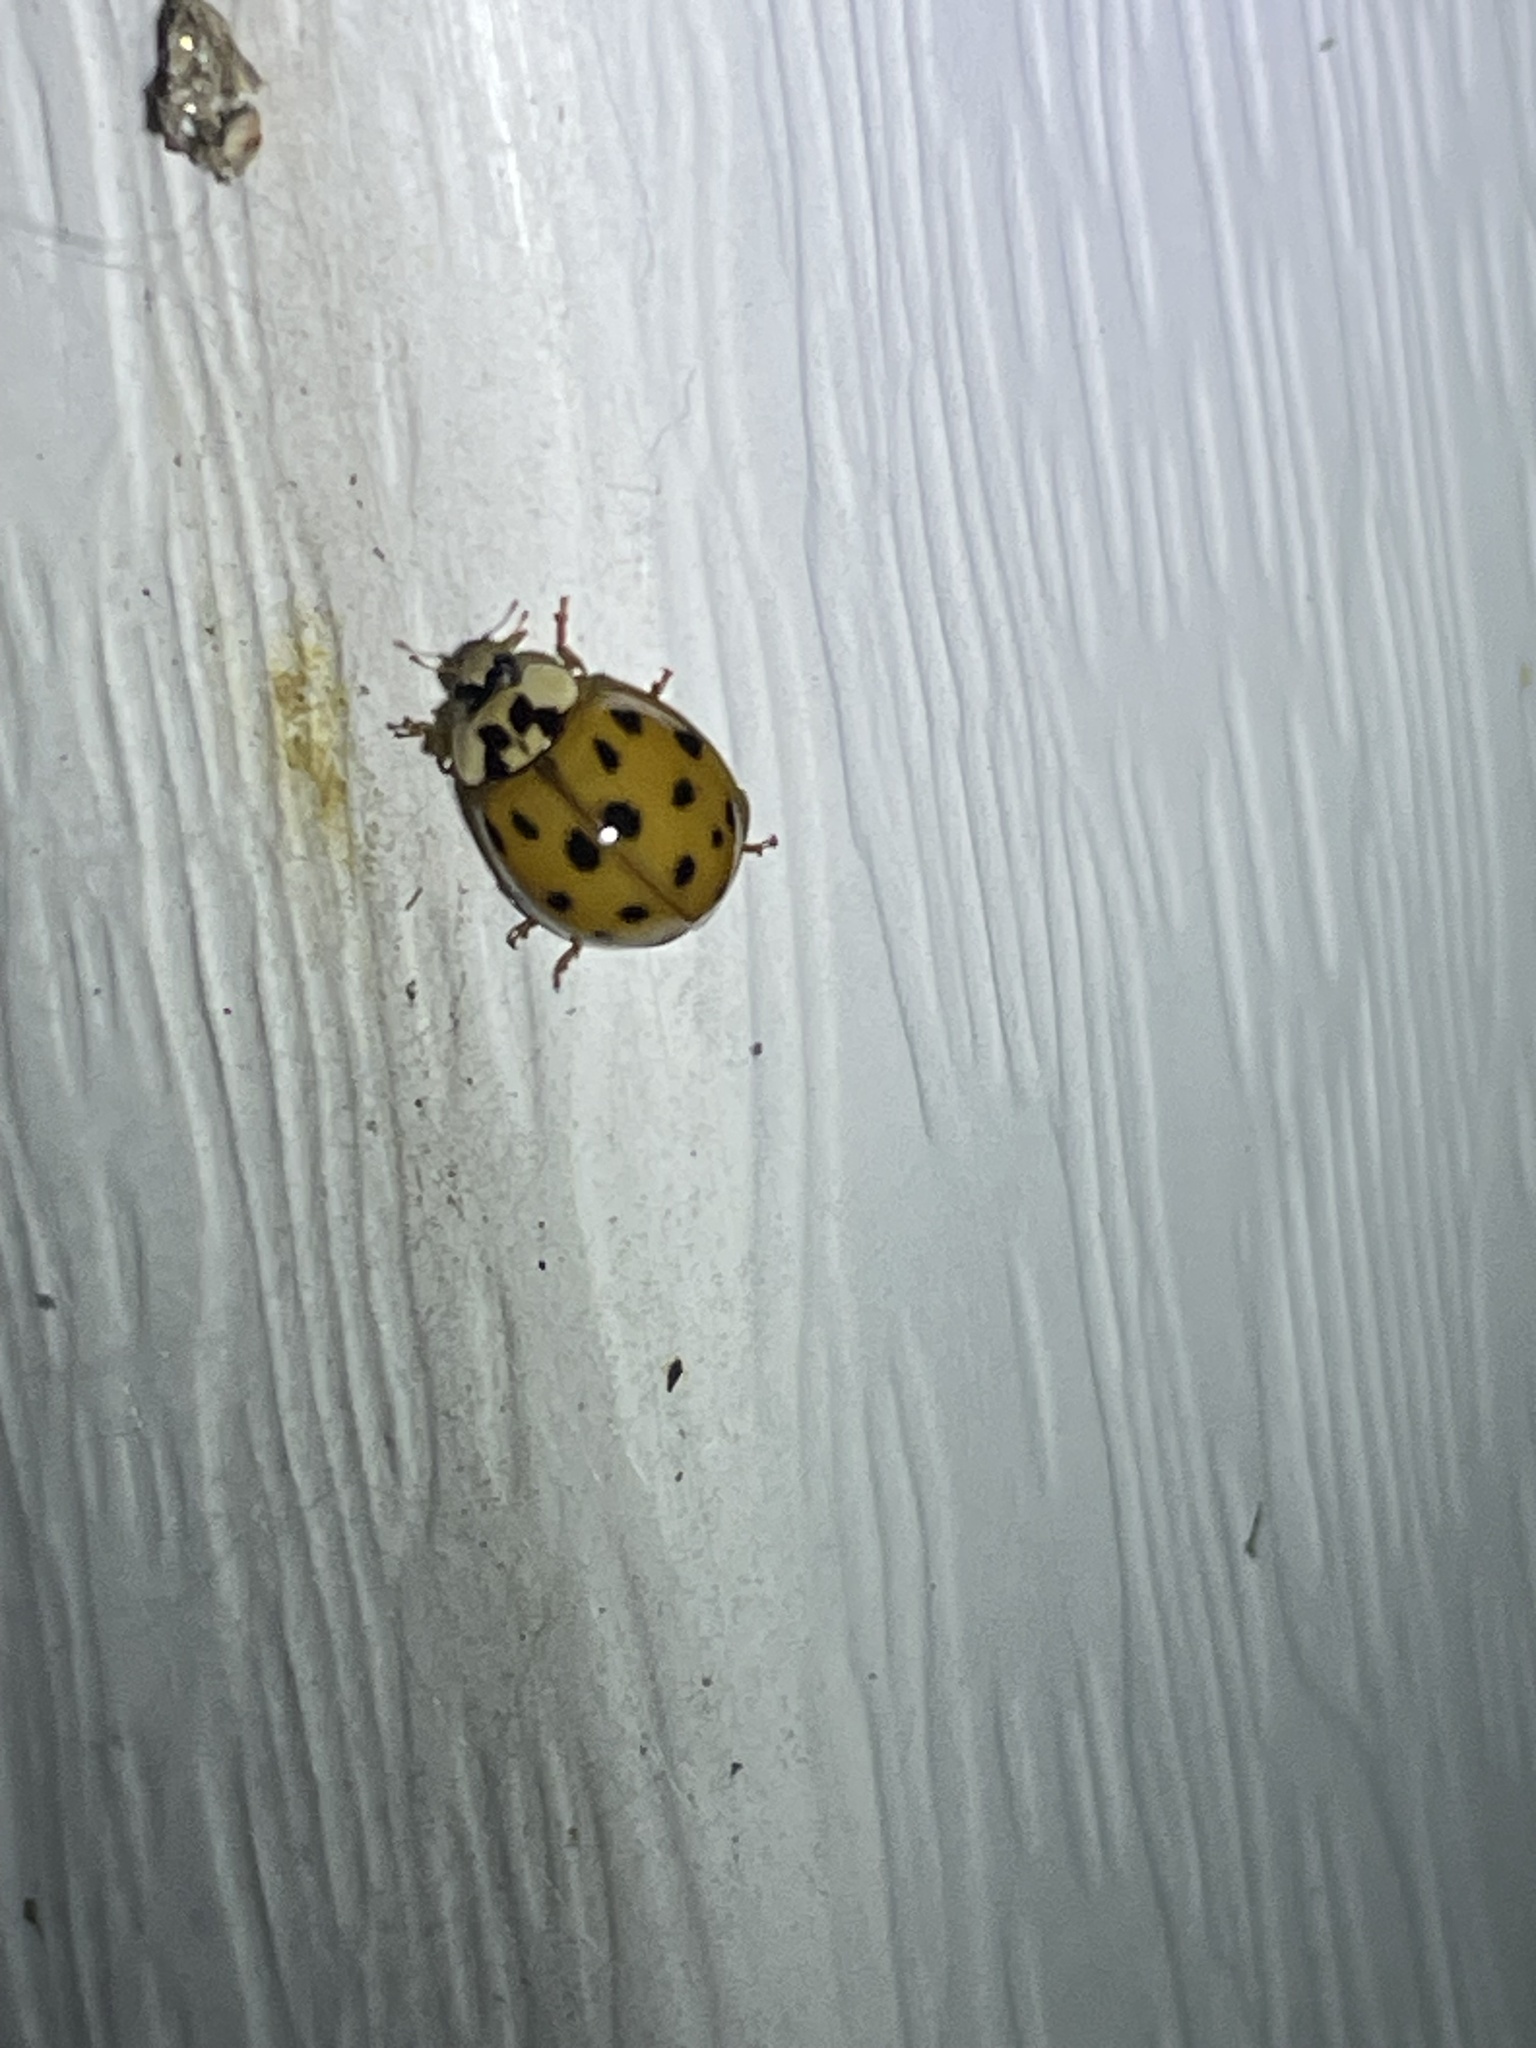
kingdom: Animalia
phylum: Arthropoda
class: Insecta
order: Coleoptera
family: Coccinellidae
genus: Harmonia
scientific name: Harmonia axyridis
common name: Harlequin ladybird
